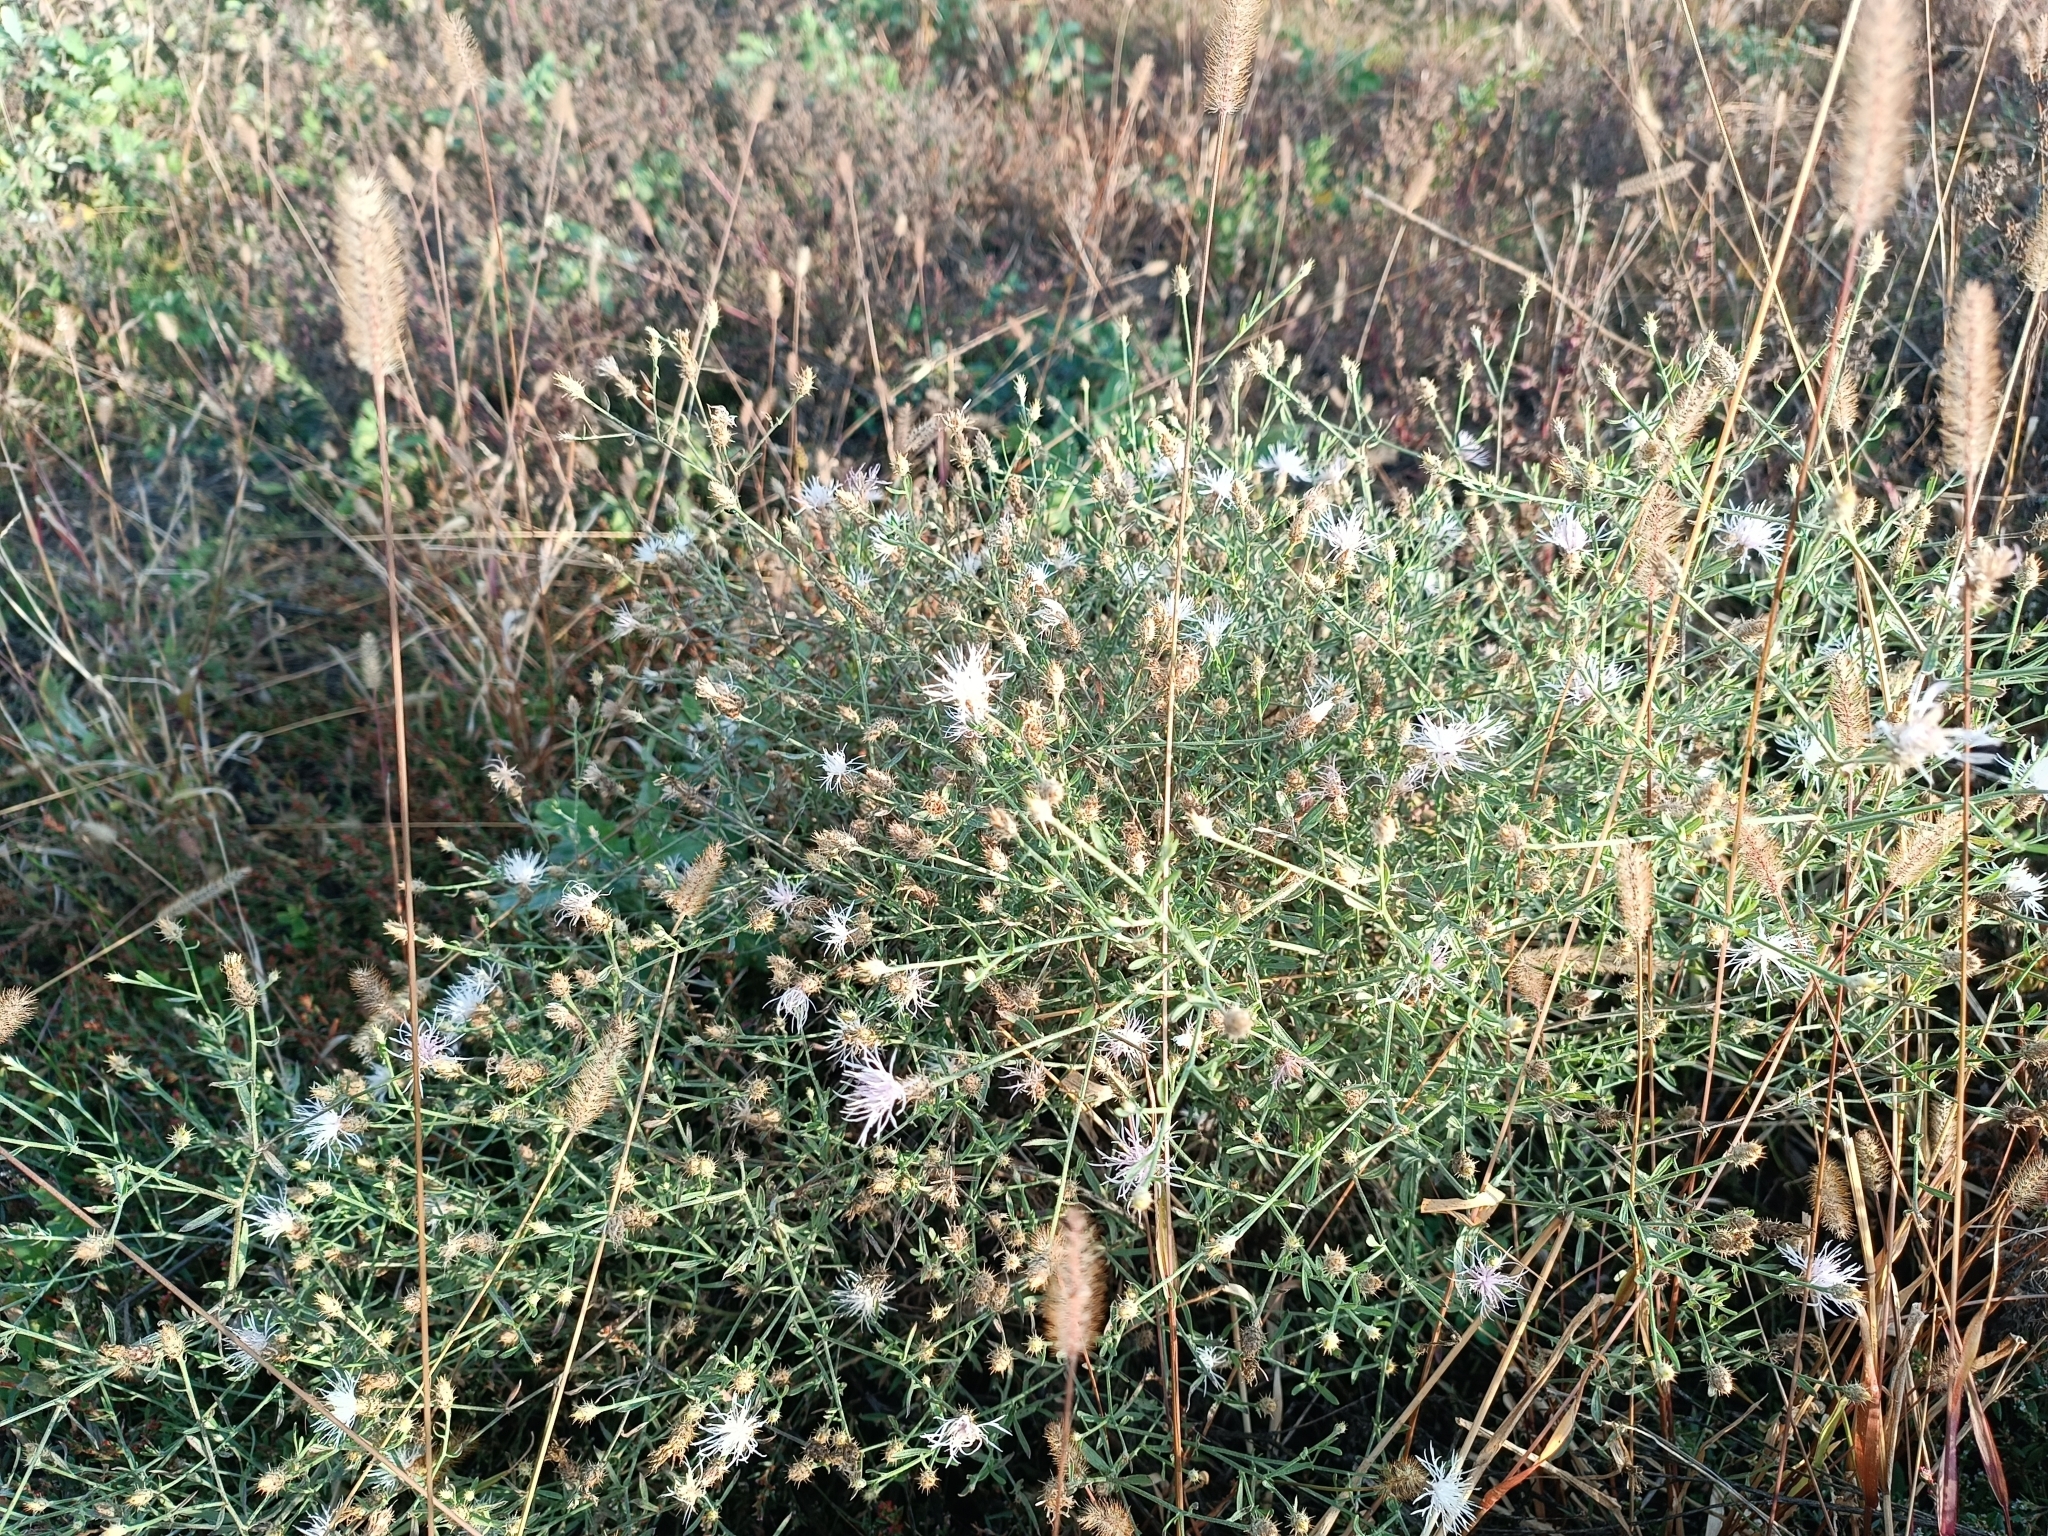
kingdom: Plantae
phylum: Tracheophyta
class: Magnoliopsida
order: Asterales
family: Asteraceae
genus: Centaurea
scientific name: Centaurea diffusa
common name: Diffuse knapweed
